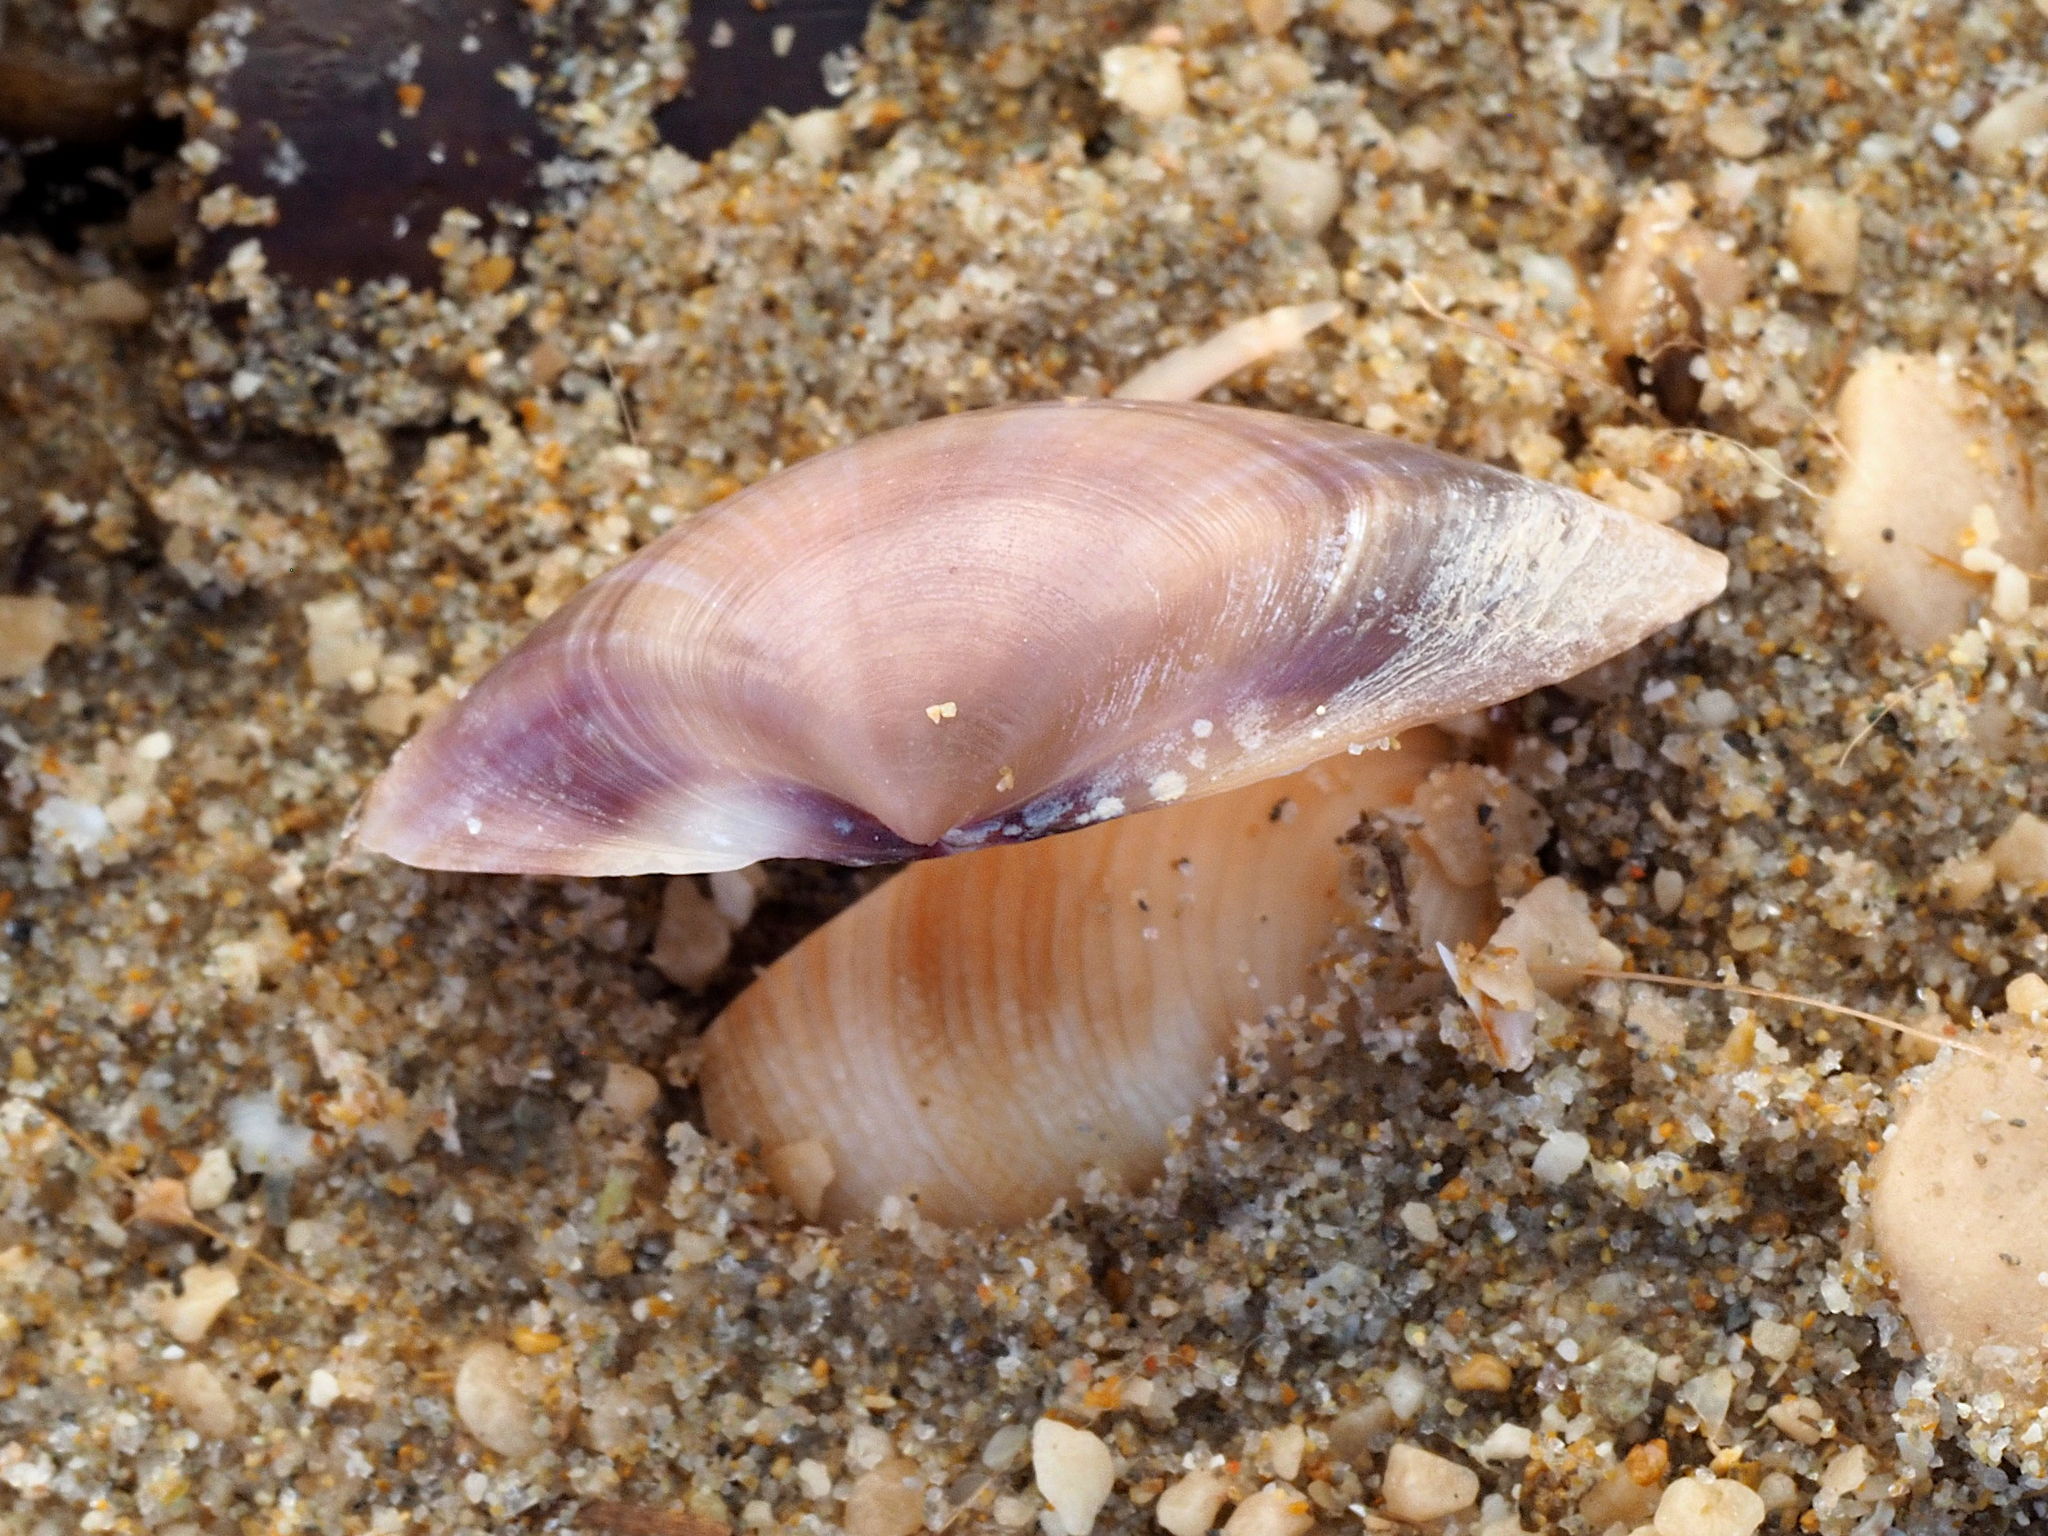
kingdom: Animalia
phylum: Mollusca
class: Bivalvia
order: Venerida
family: Mactridae
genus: Mactra
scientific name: Mactra stultorum
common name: Rayed trough shell
